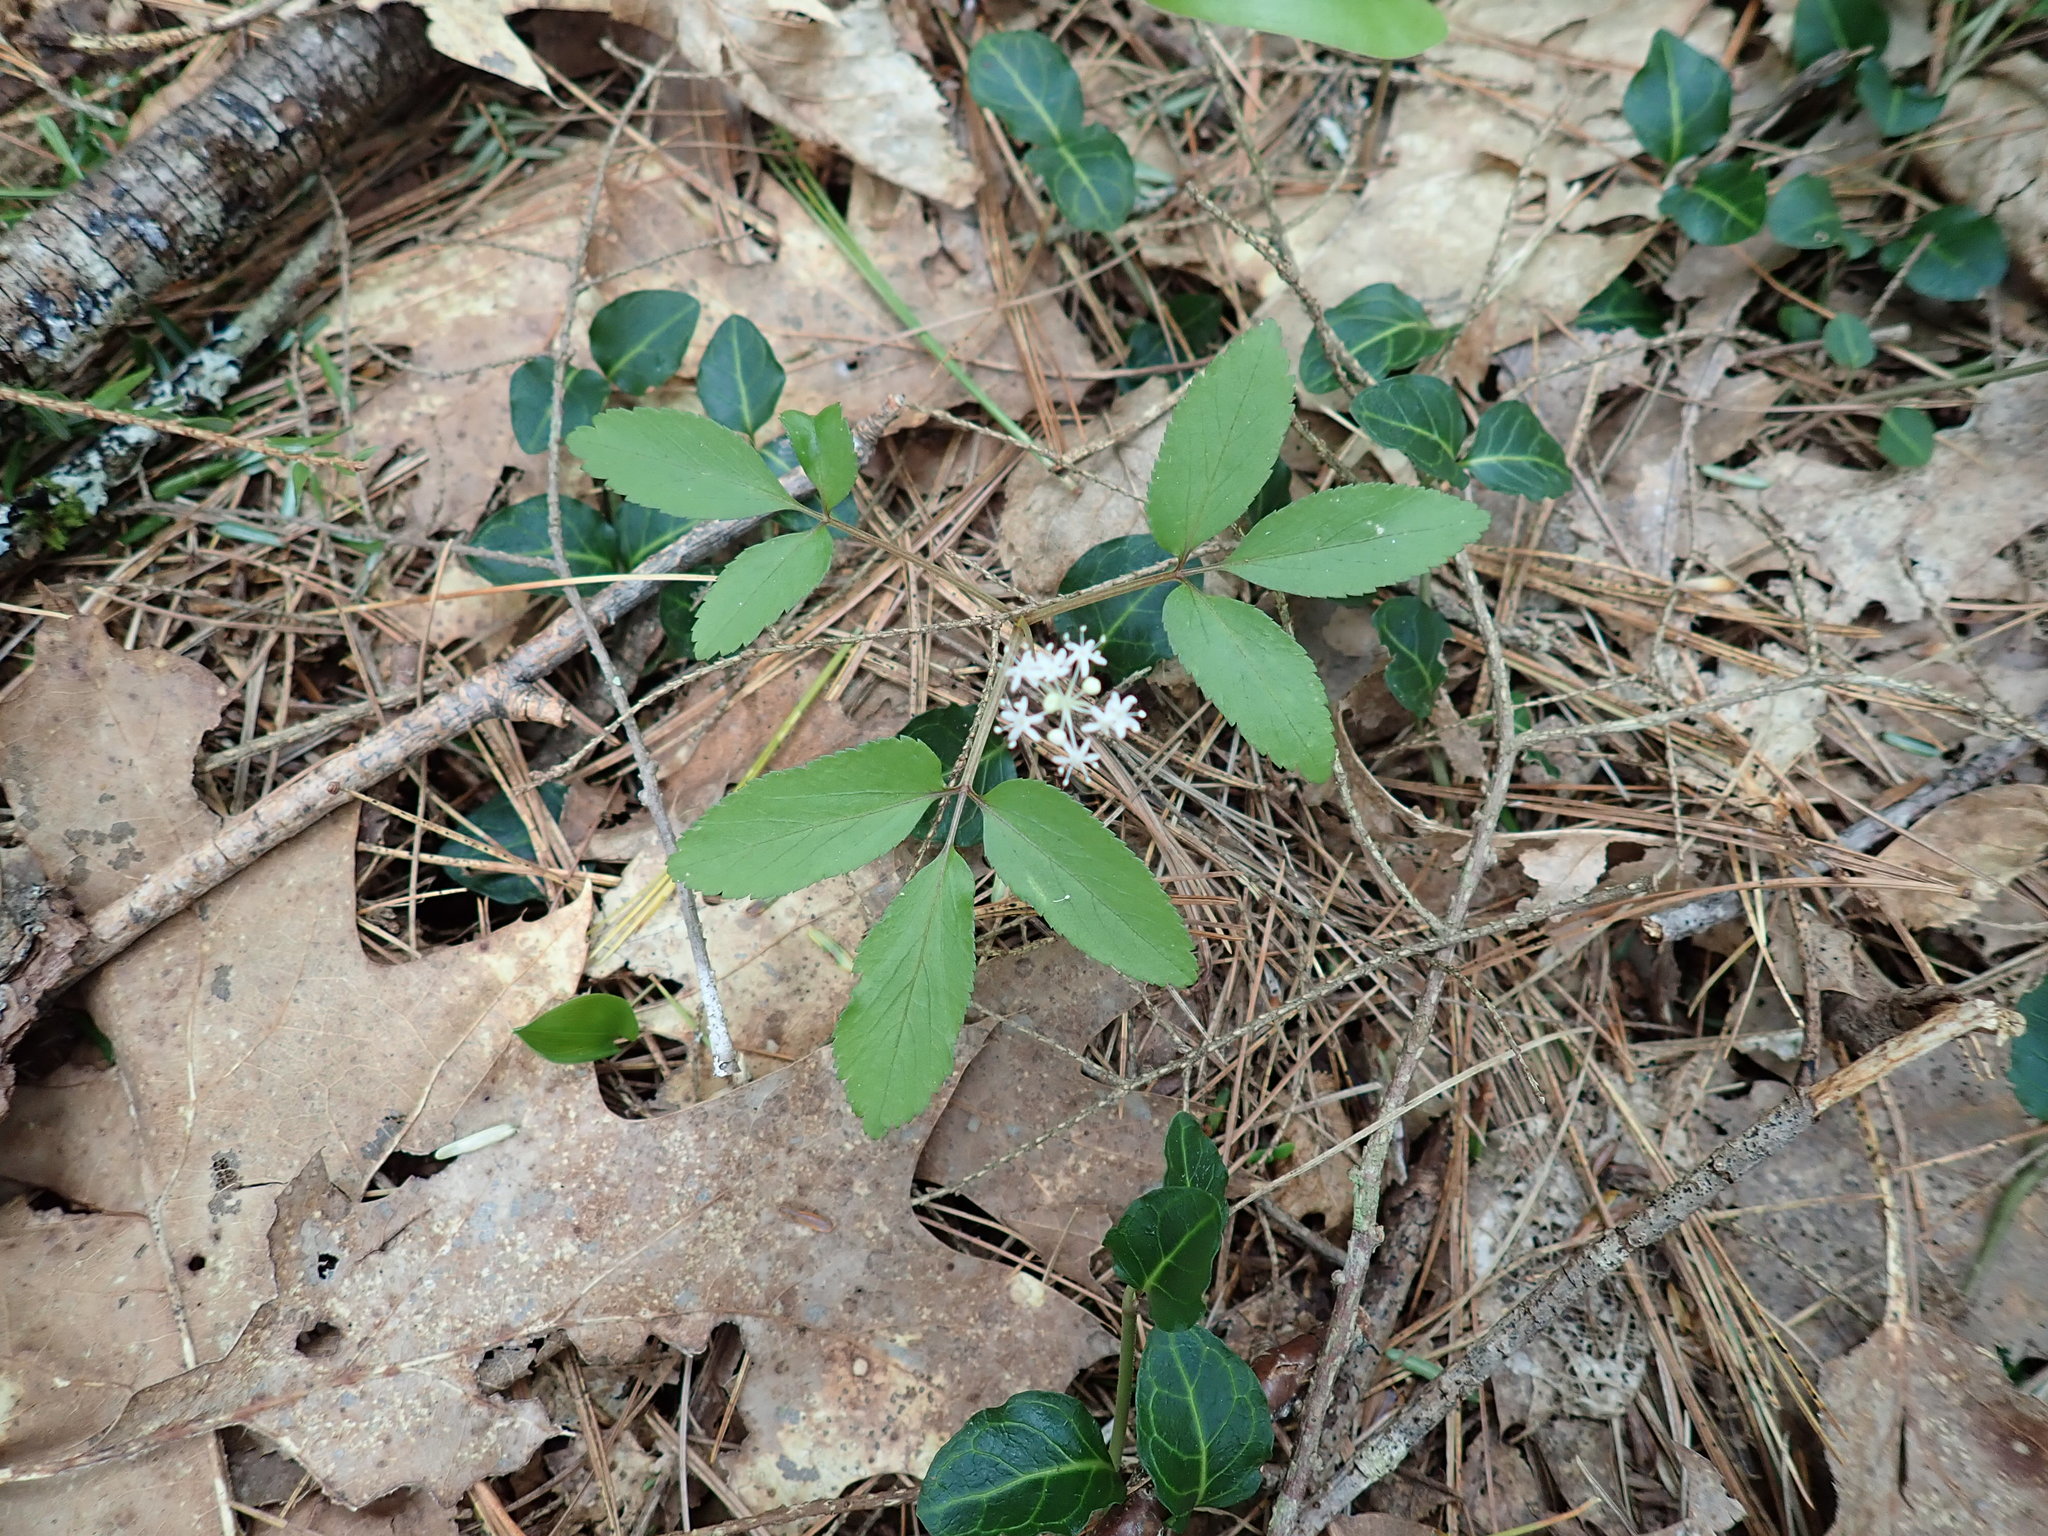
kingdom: Plantae
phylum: Tracheophyta
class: Magnoliopsida
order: Apiales
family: Araliaceae
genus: Panax
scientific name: Panax trifolius
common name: Dwarf ginseng
